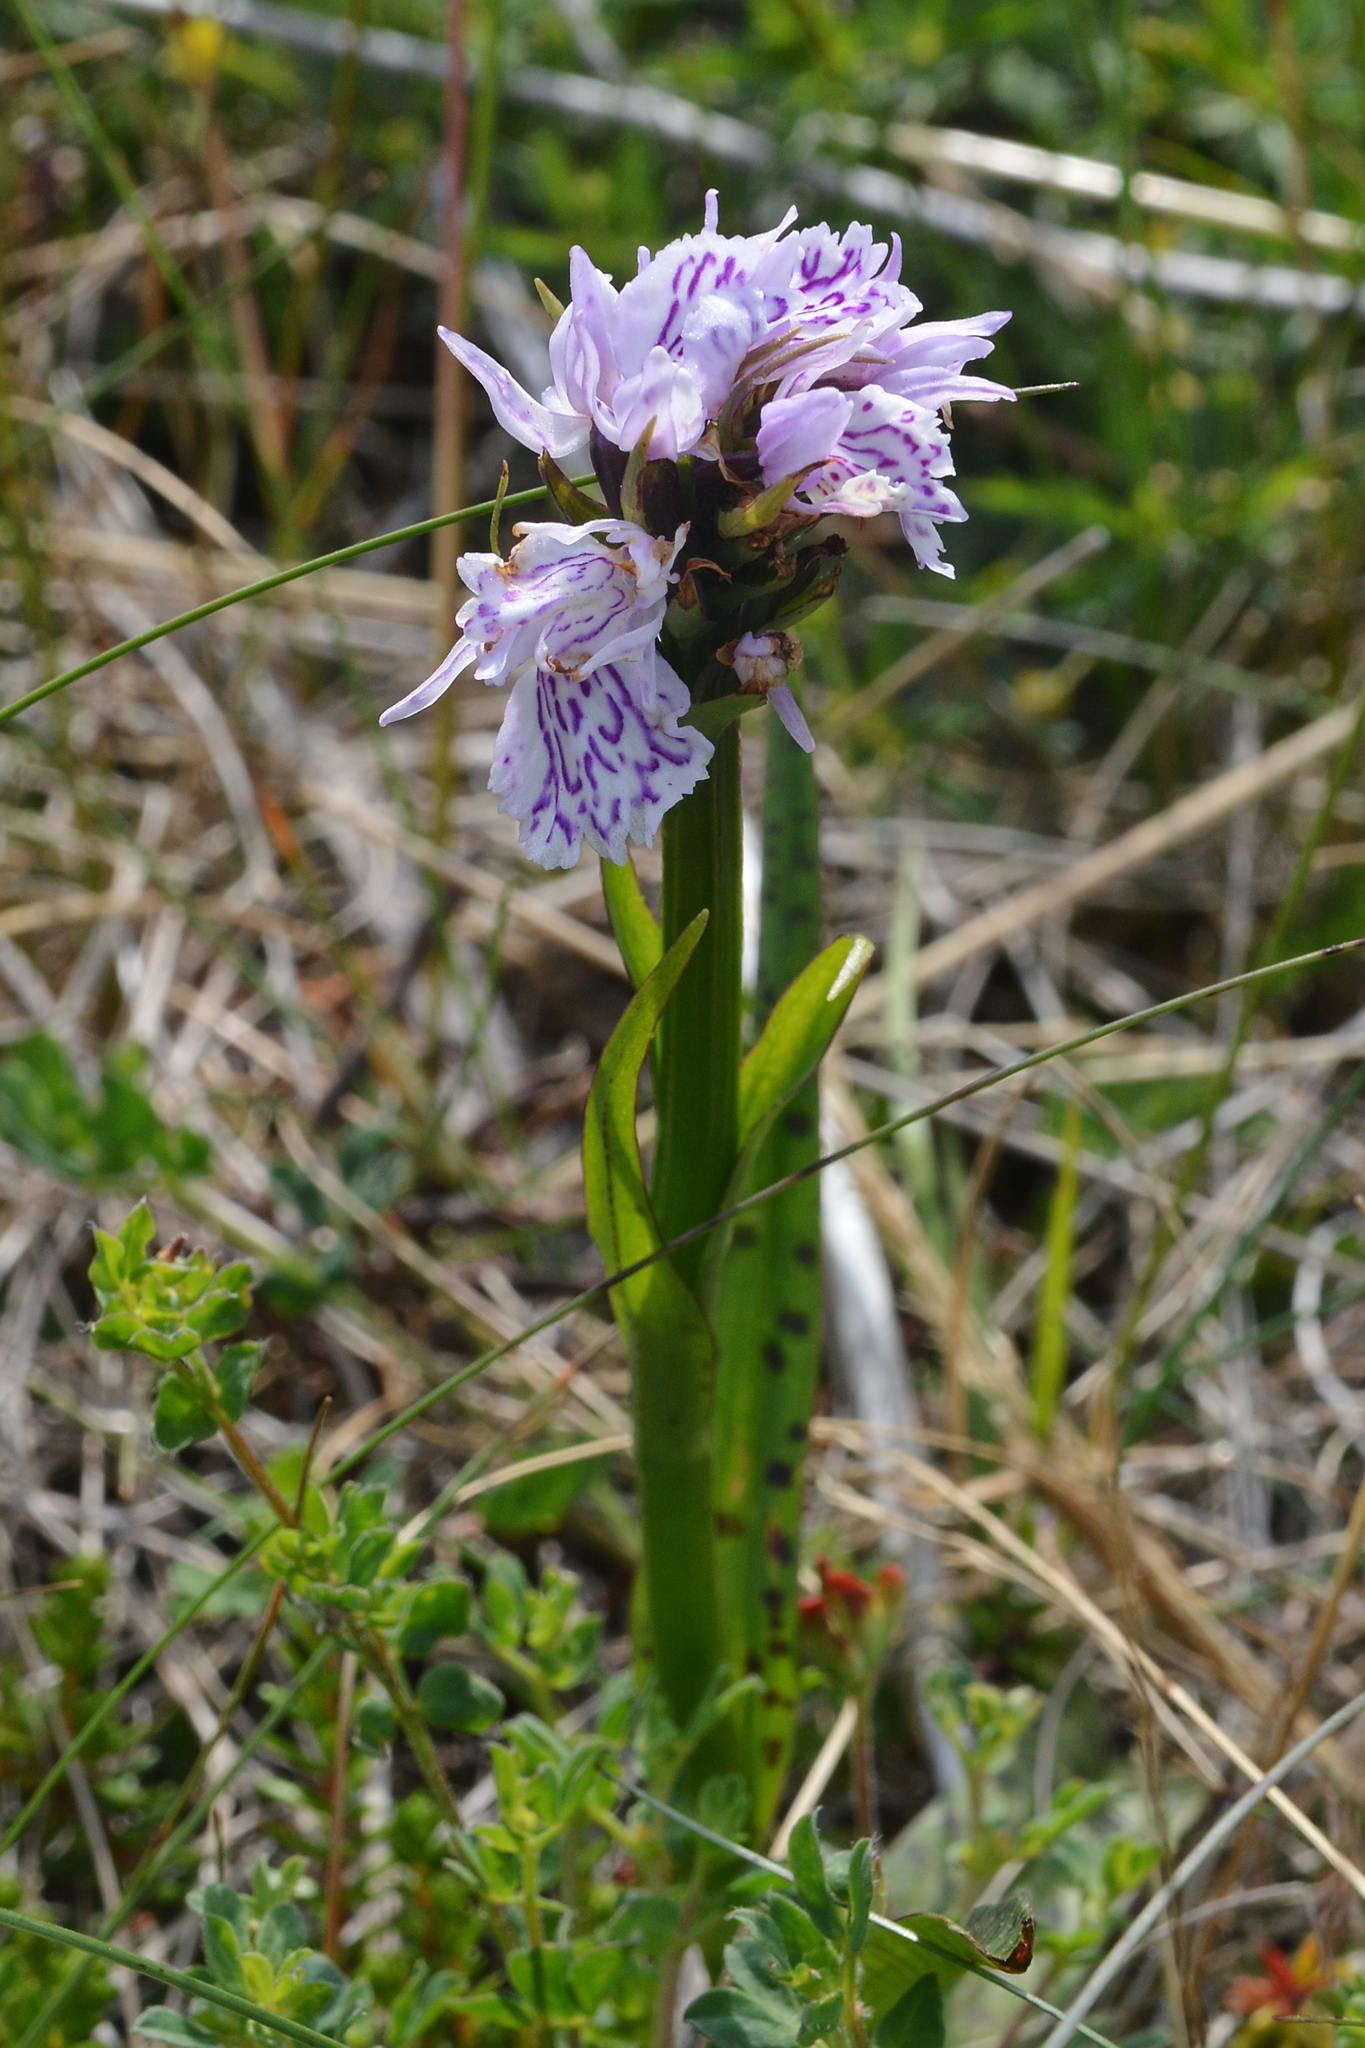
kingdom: Plantae
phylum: Tracheophyta
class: Liliopsida
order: Asparagales
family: Orchidaceae
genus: Dactylorhiza
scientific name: Dactylorhiza maculata
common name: Heath spotted-orchid
